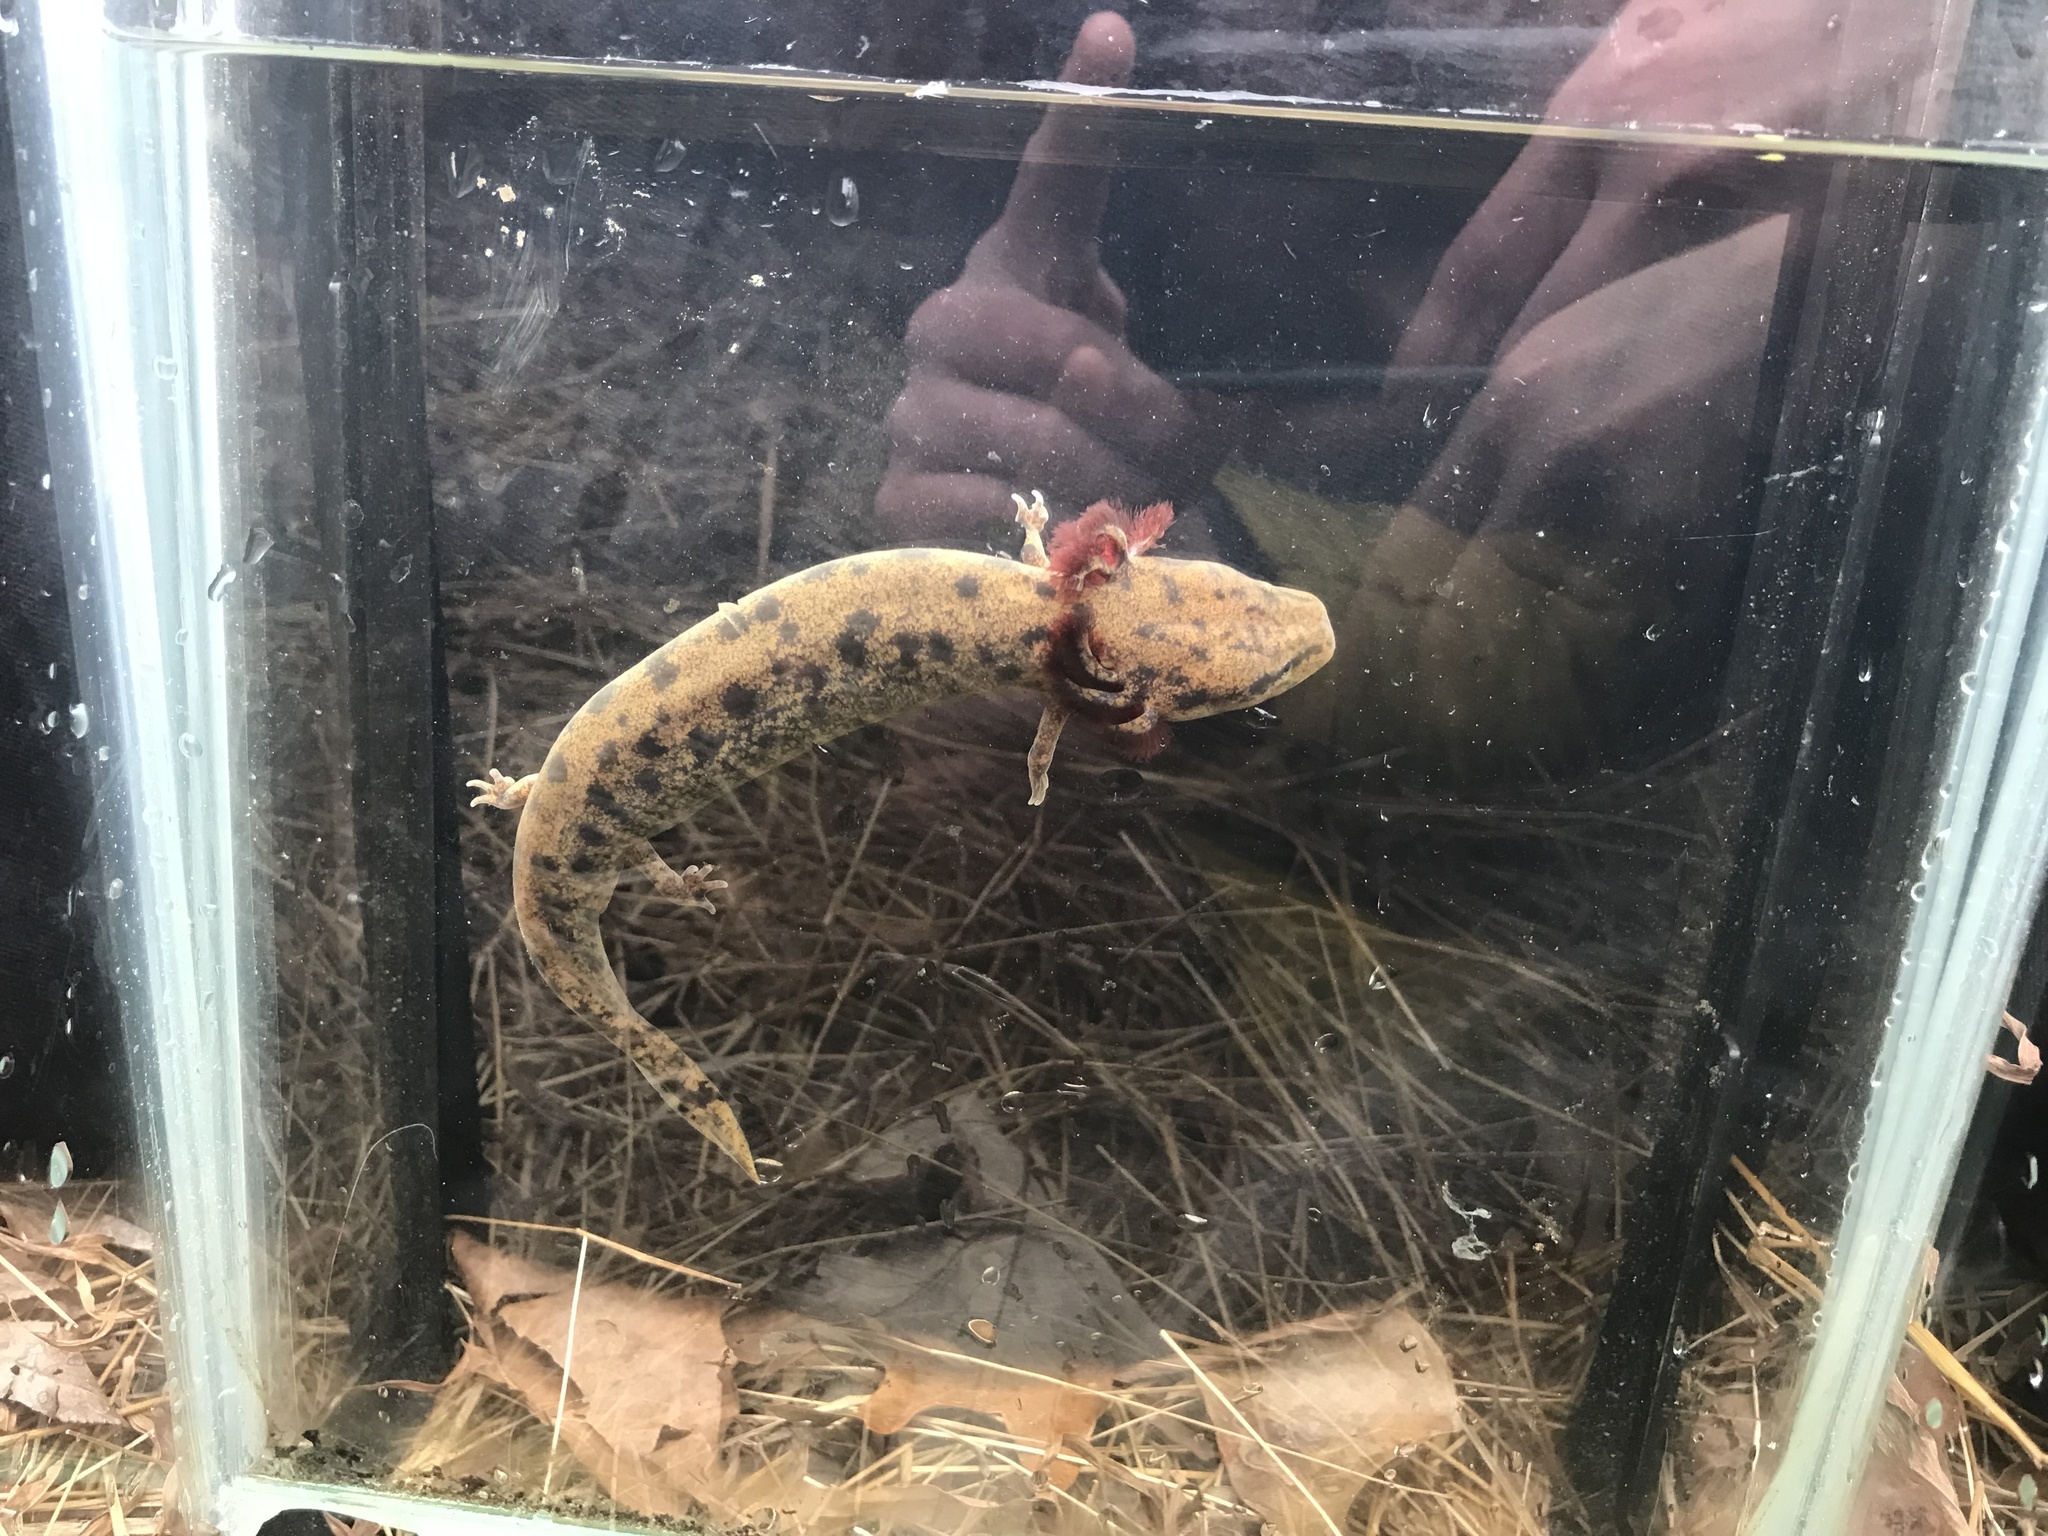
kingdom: Animalia
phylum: Chordata
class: Amphibia
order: Caudata
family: Proteidae
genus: Necturus
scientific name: Necturus lewisi
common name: Neuse river waterdog
